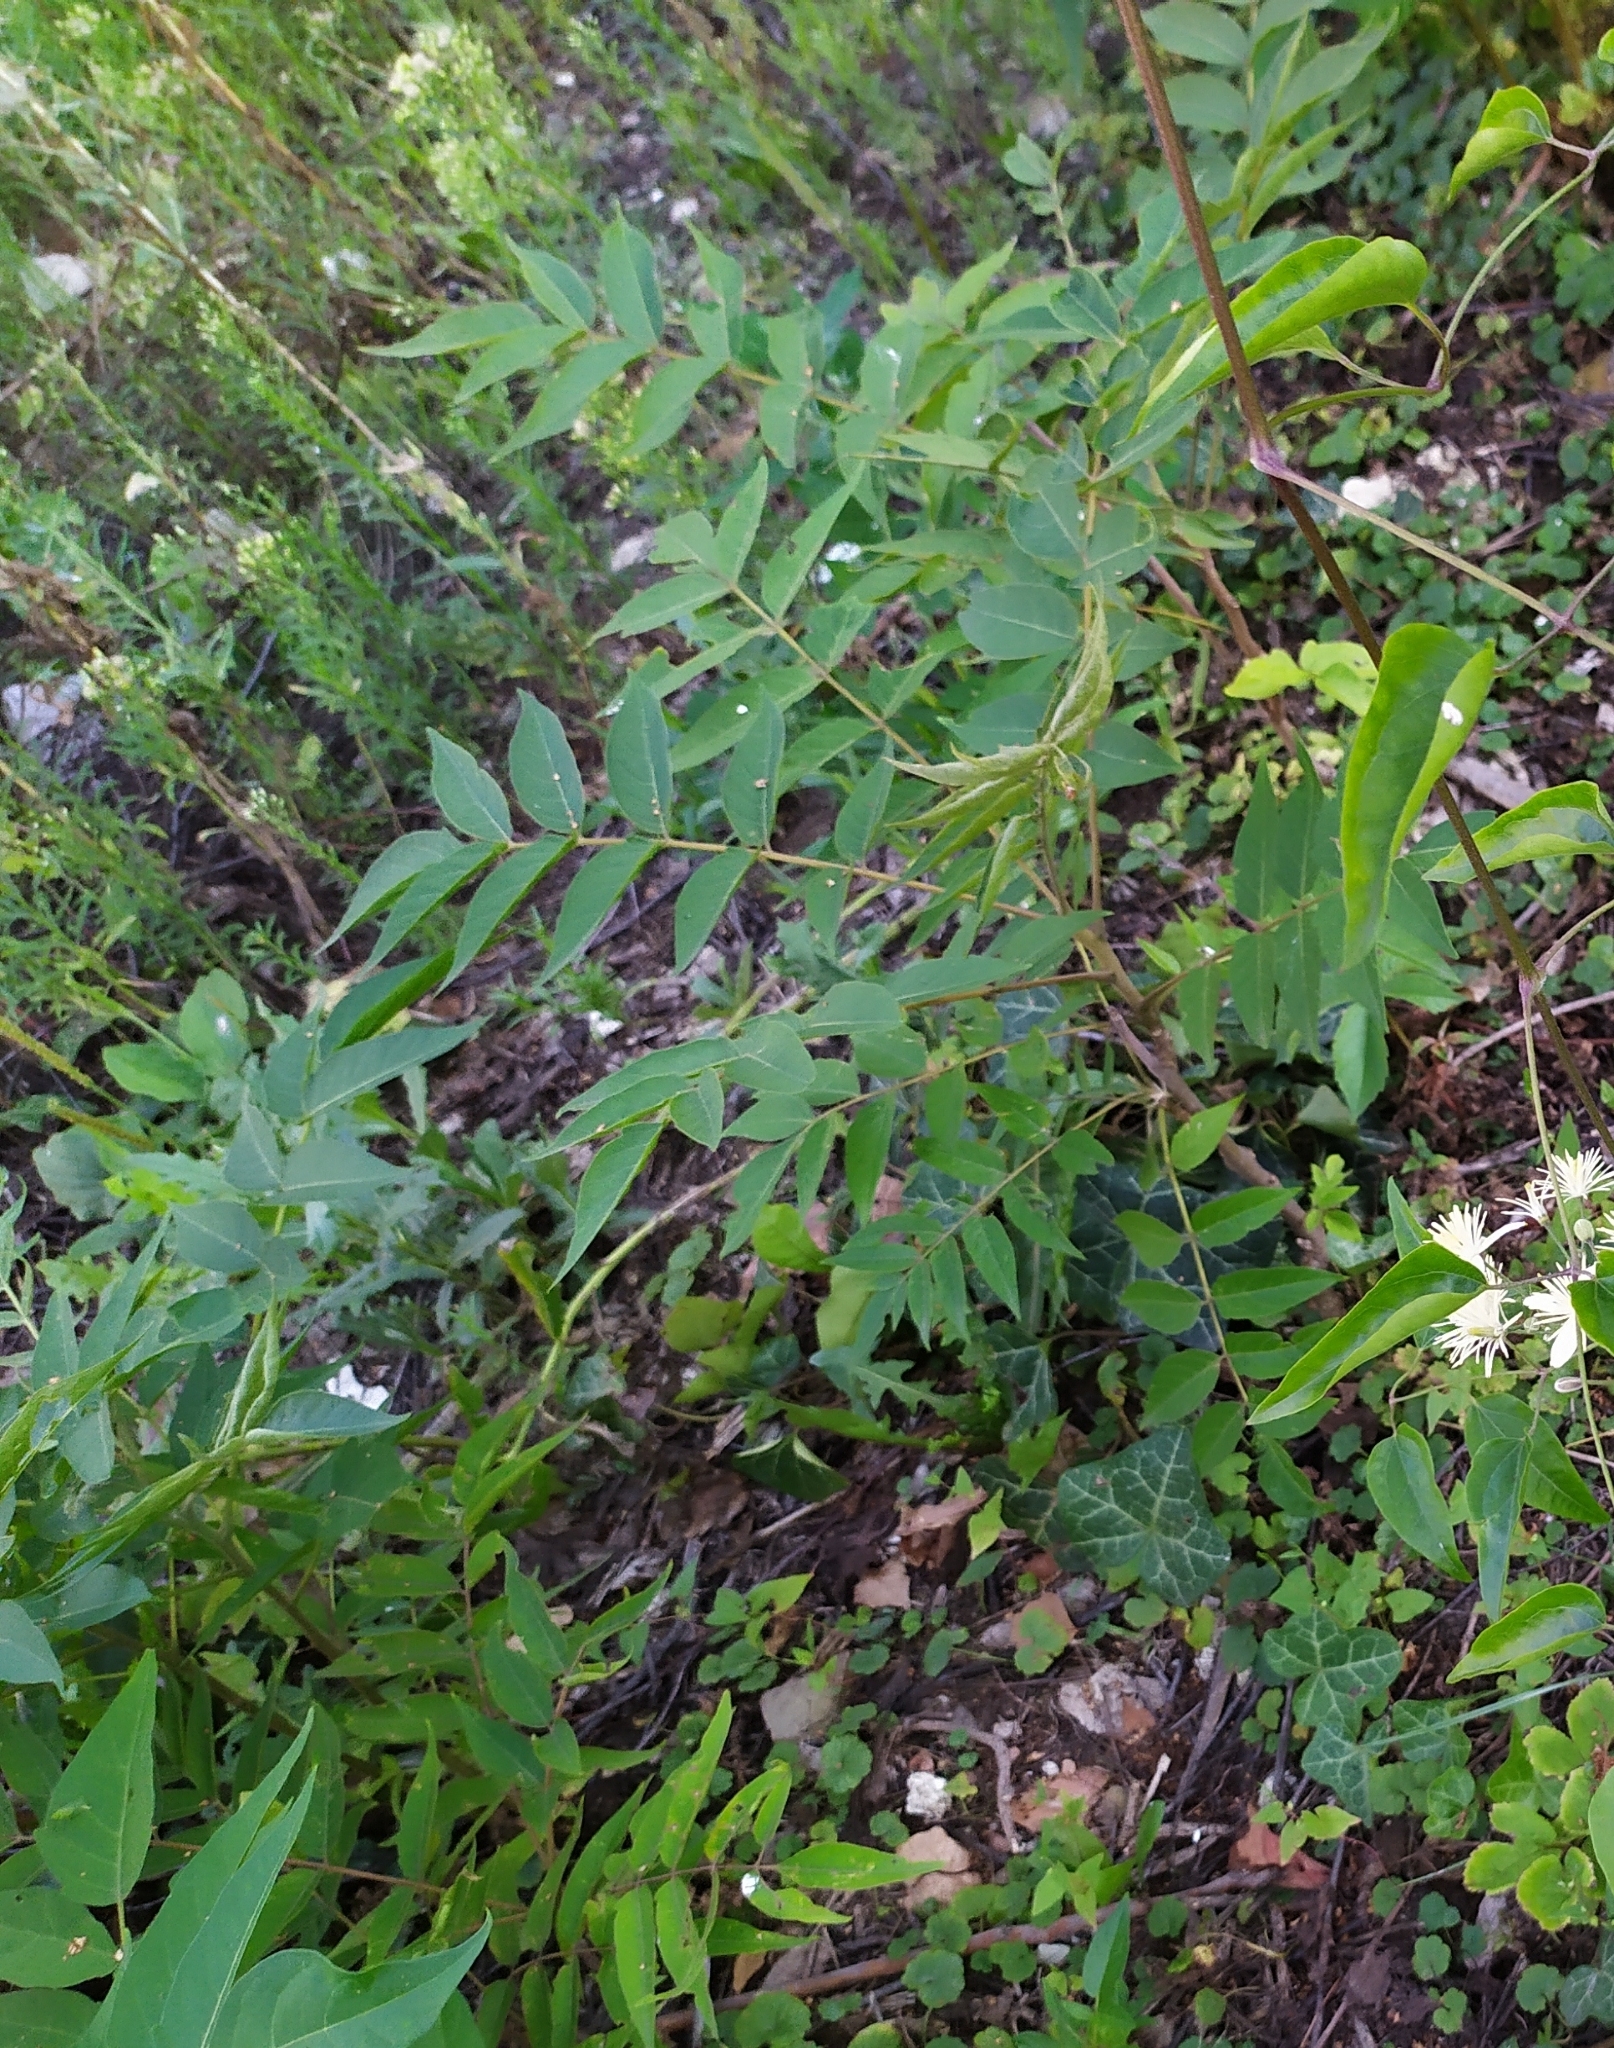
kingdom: Plantae
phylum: Tracheophyta
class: Magnoliopsida
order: Sapindales
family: Simaroubaceae
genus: Ailanthus
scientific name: Ailanthus altissima
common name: Tree-of-heaven
